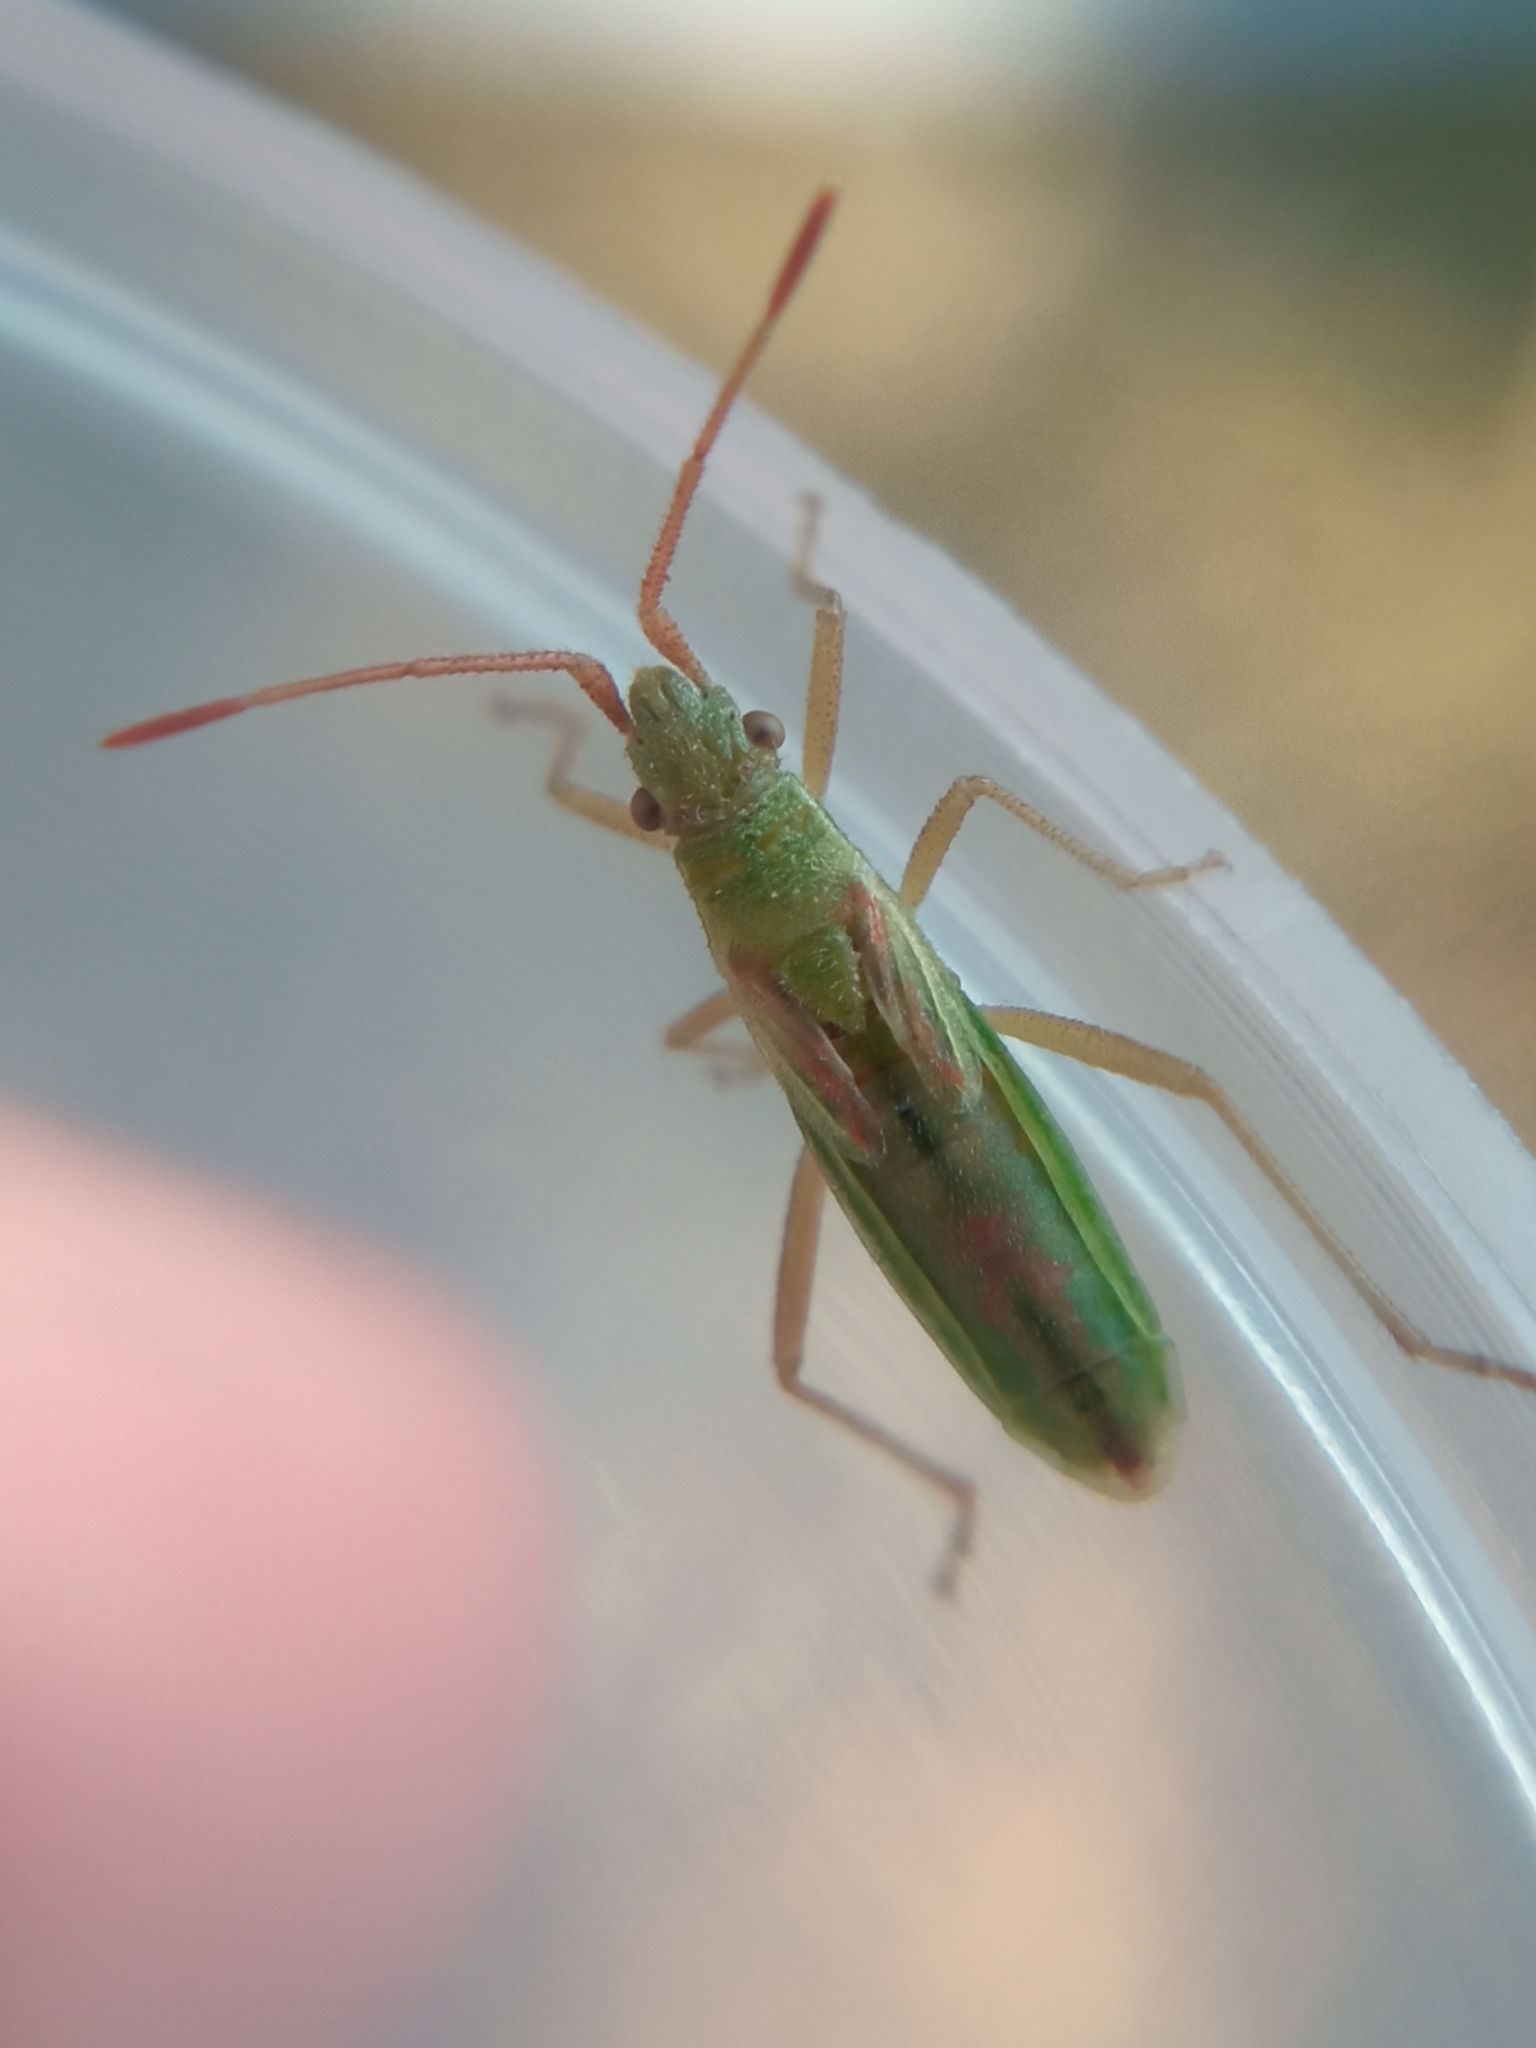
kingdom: Animalia
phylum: Arthropoda
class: Insecta
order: Hemiptera
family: Rhopalidae
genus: Myrmus
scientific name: Myrmus miriformis
